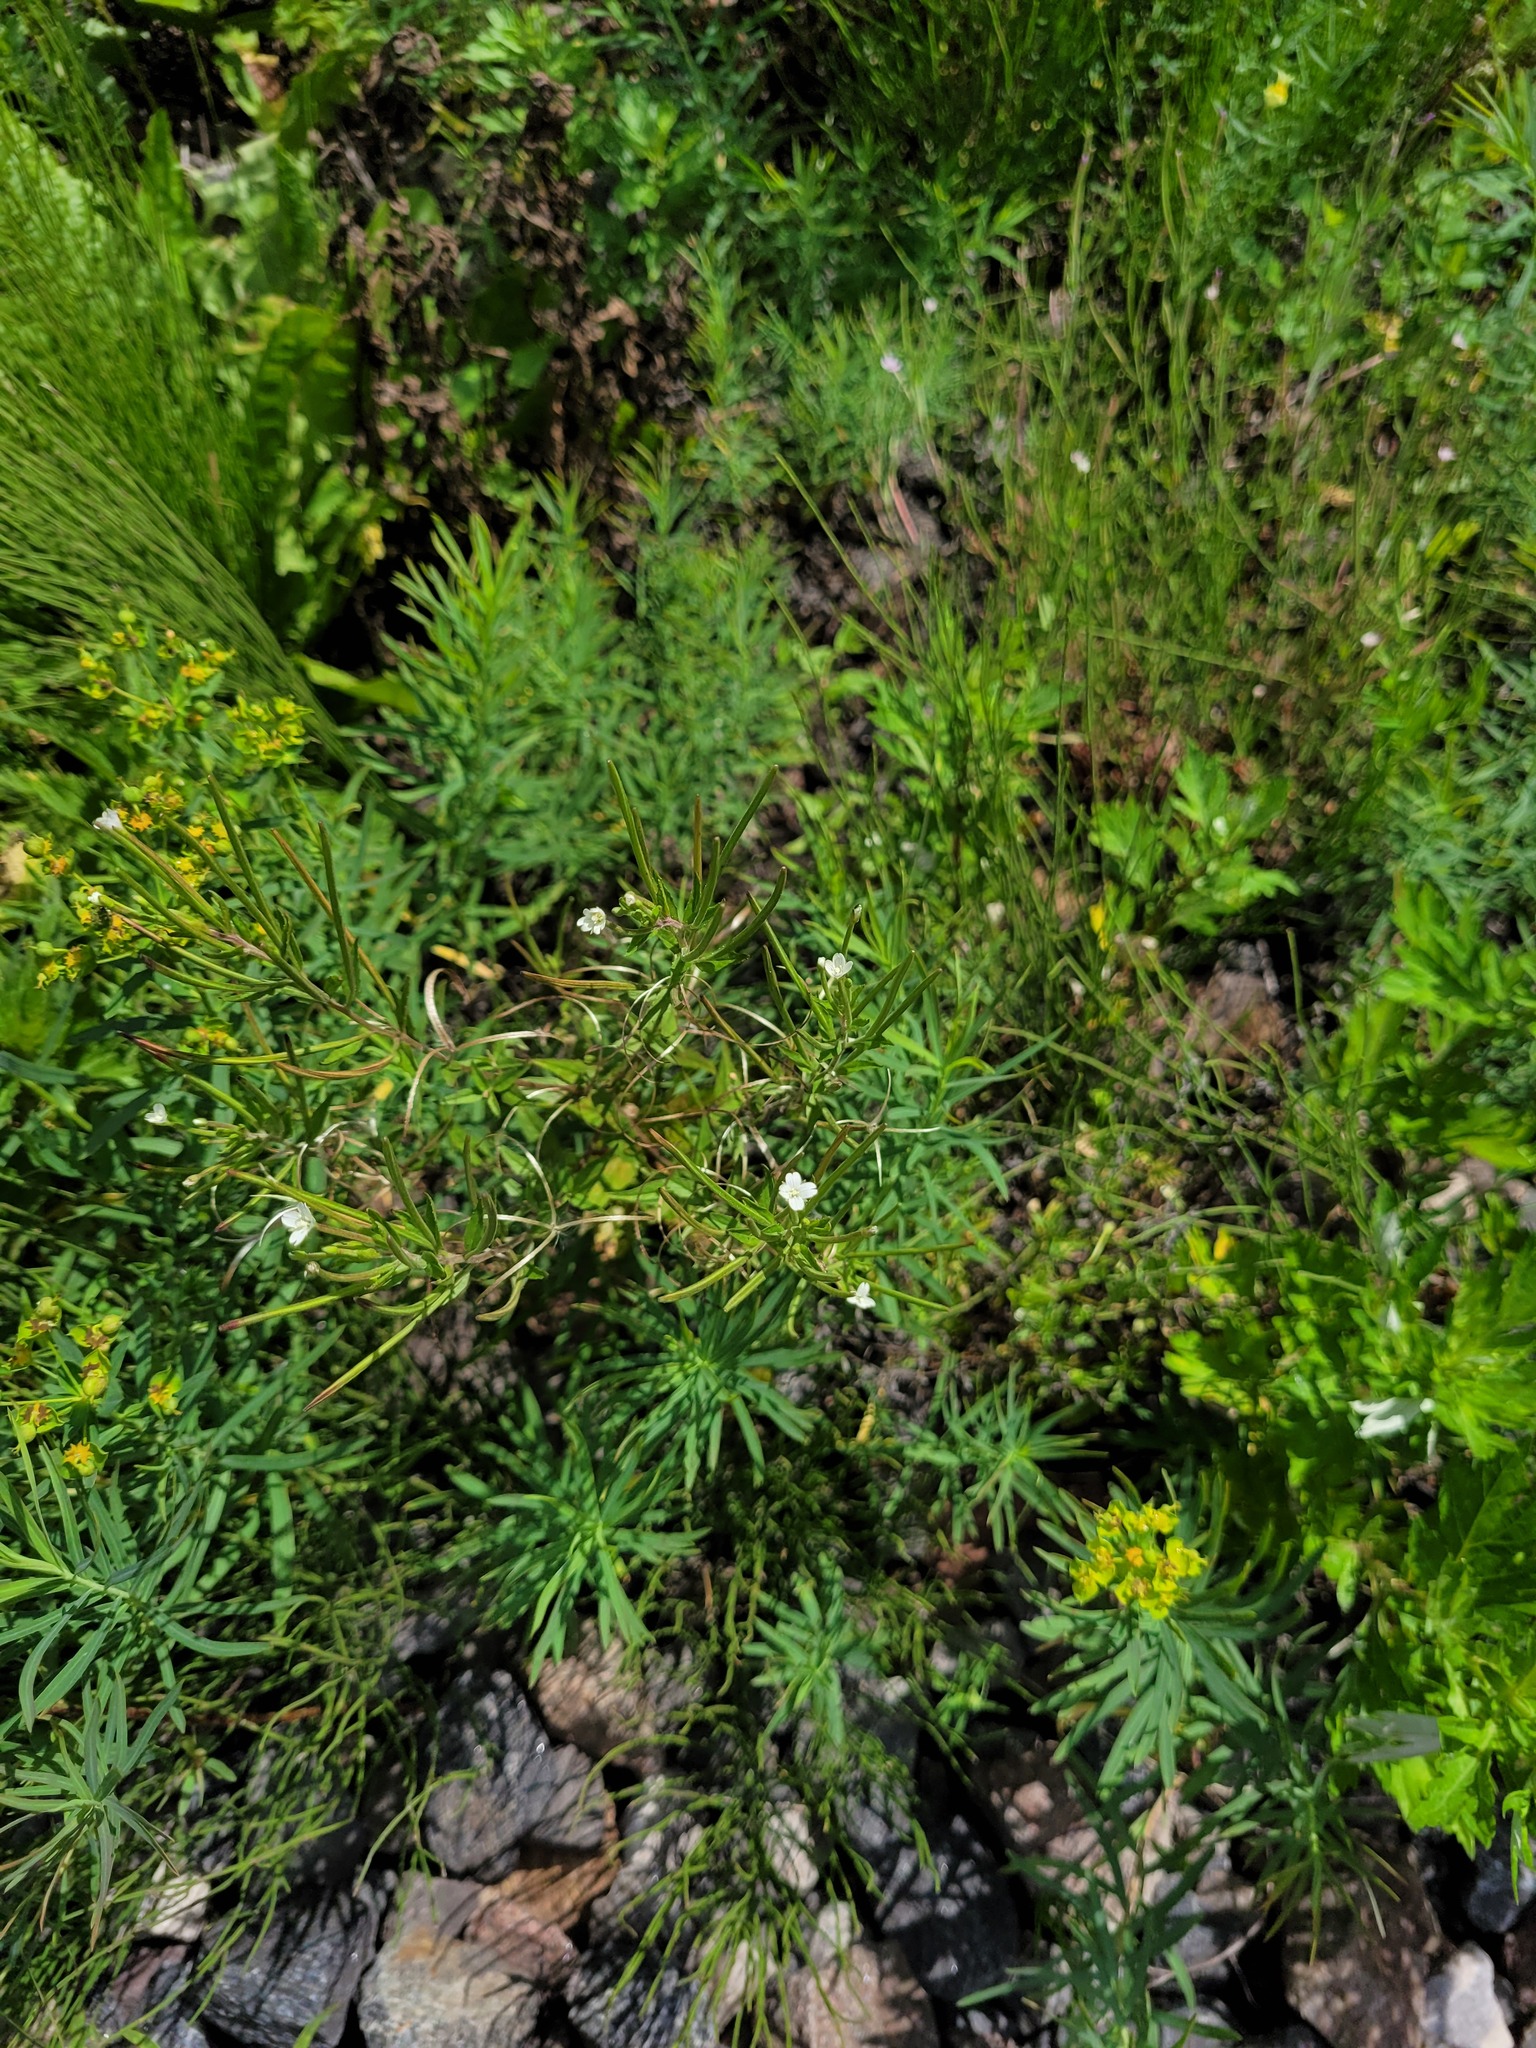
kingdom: Plantae
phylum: Tracheophyta
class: Magnoliopsida
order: Myrtales
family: Onagraceae
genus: Epilobium
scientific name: Epilobium pseudorubescens
